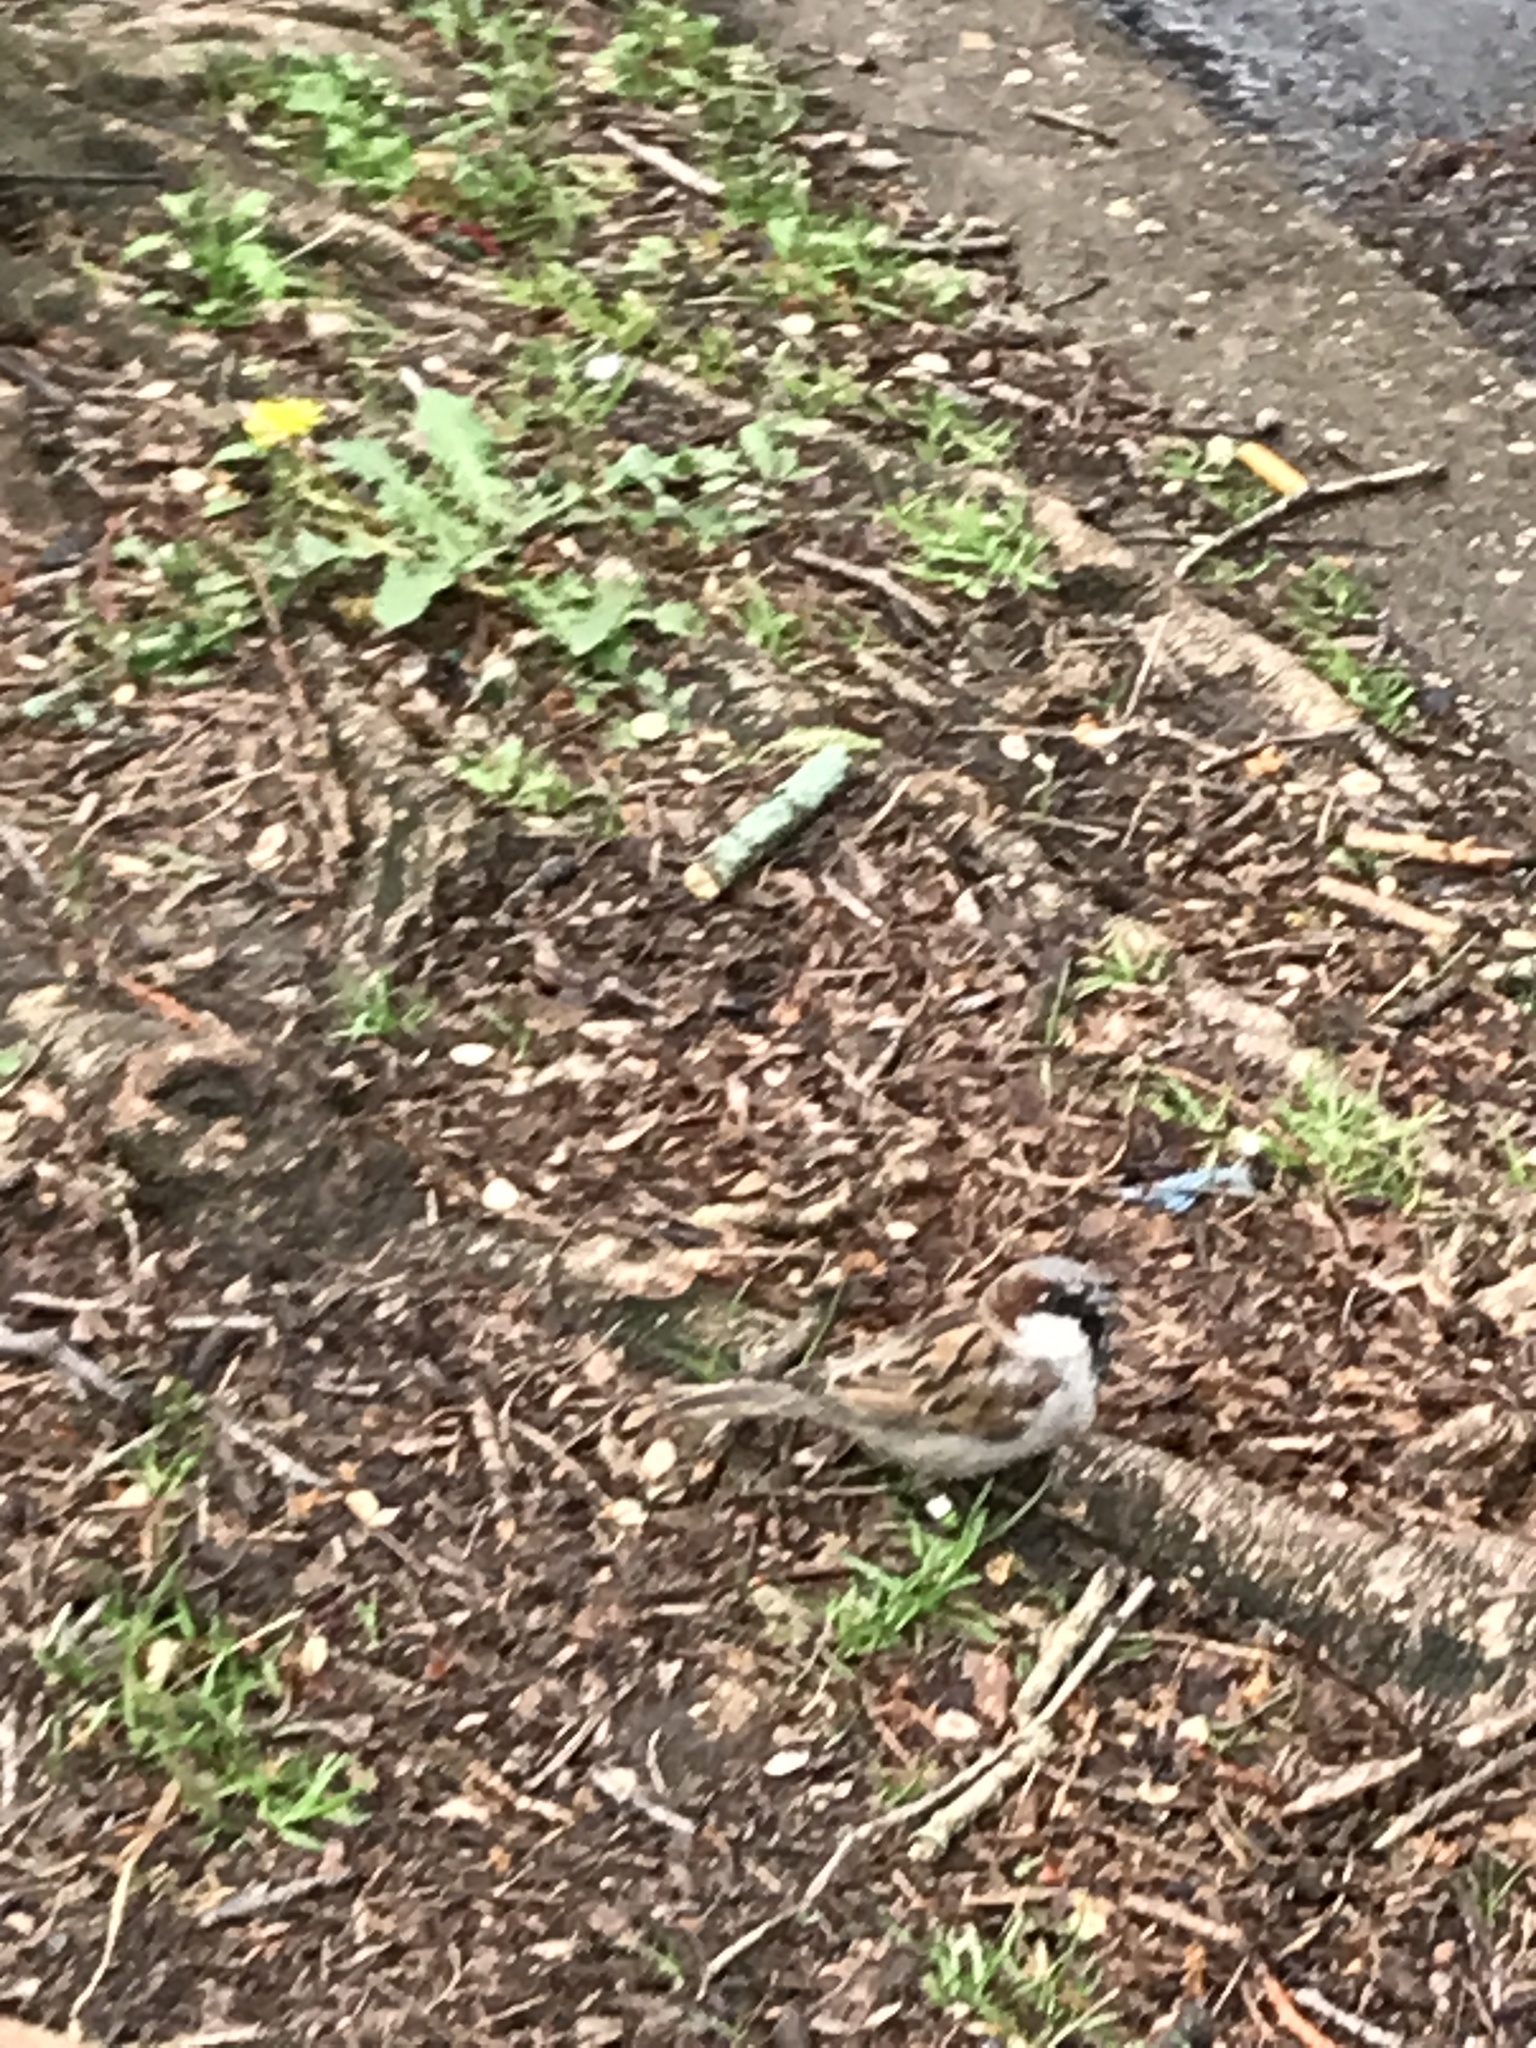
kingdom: Animalia
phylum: Chordata
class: Aves
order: Passeriformes
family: Passeridae
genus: Passer
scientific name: Passer domesticus
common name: House sparrow
